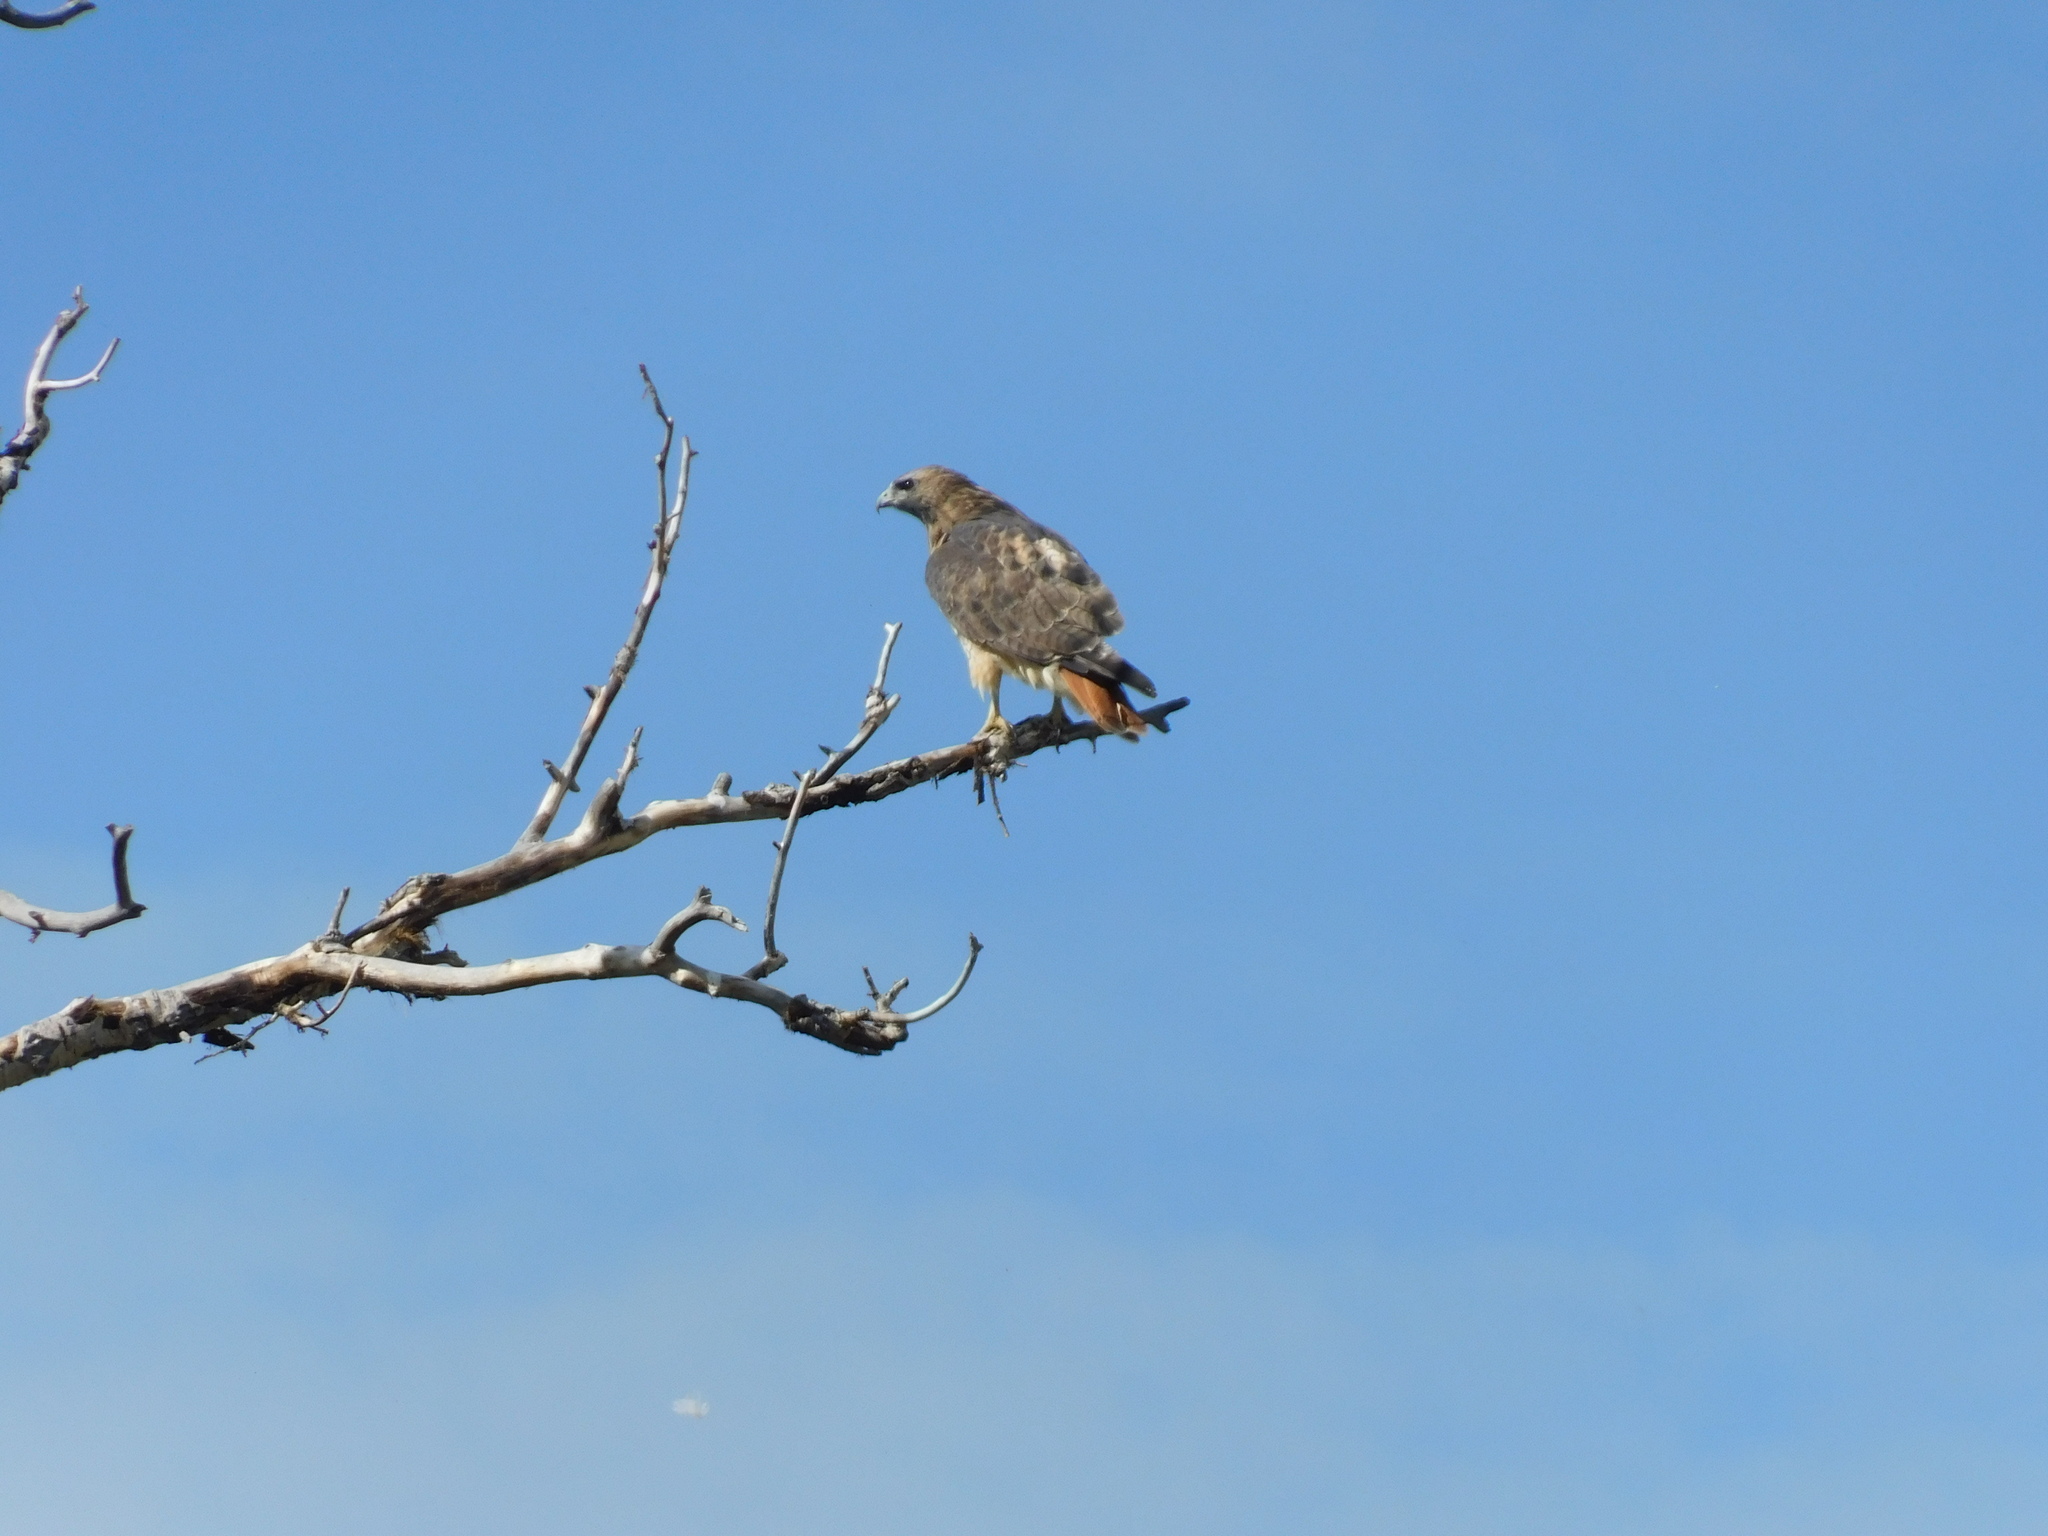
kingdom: Animalia
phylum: Chordata
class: Aves
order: Accipitriformes
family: Accipitridae
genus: Buteo
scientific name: Buteo jamaicensis
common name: Red-tailed hawk
